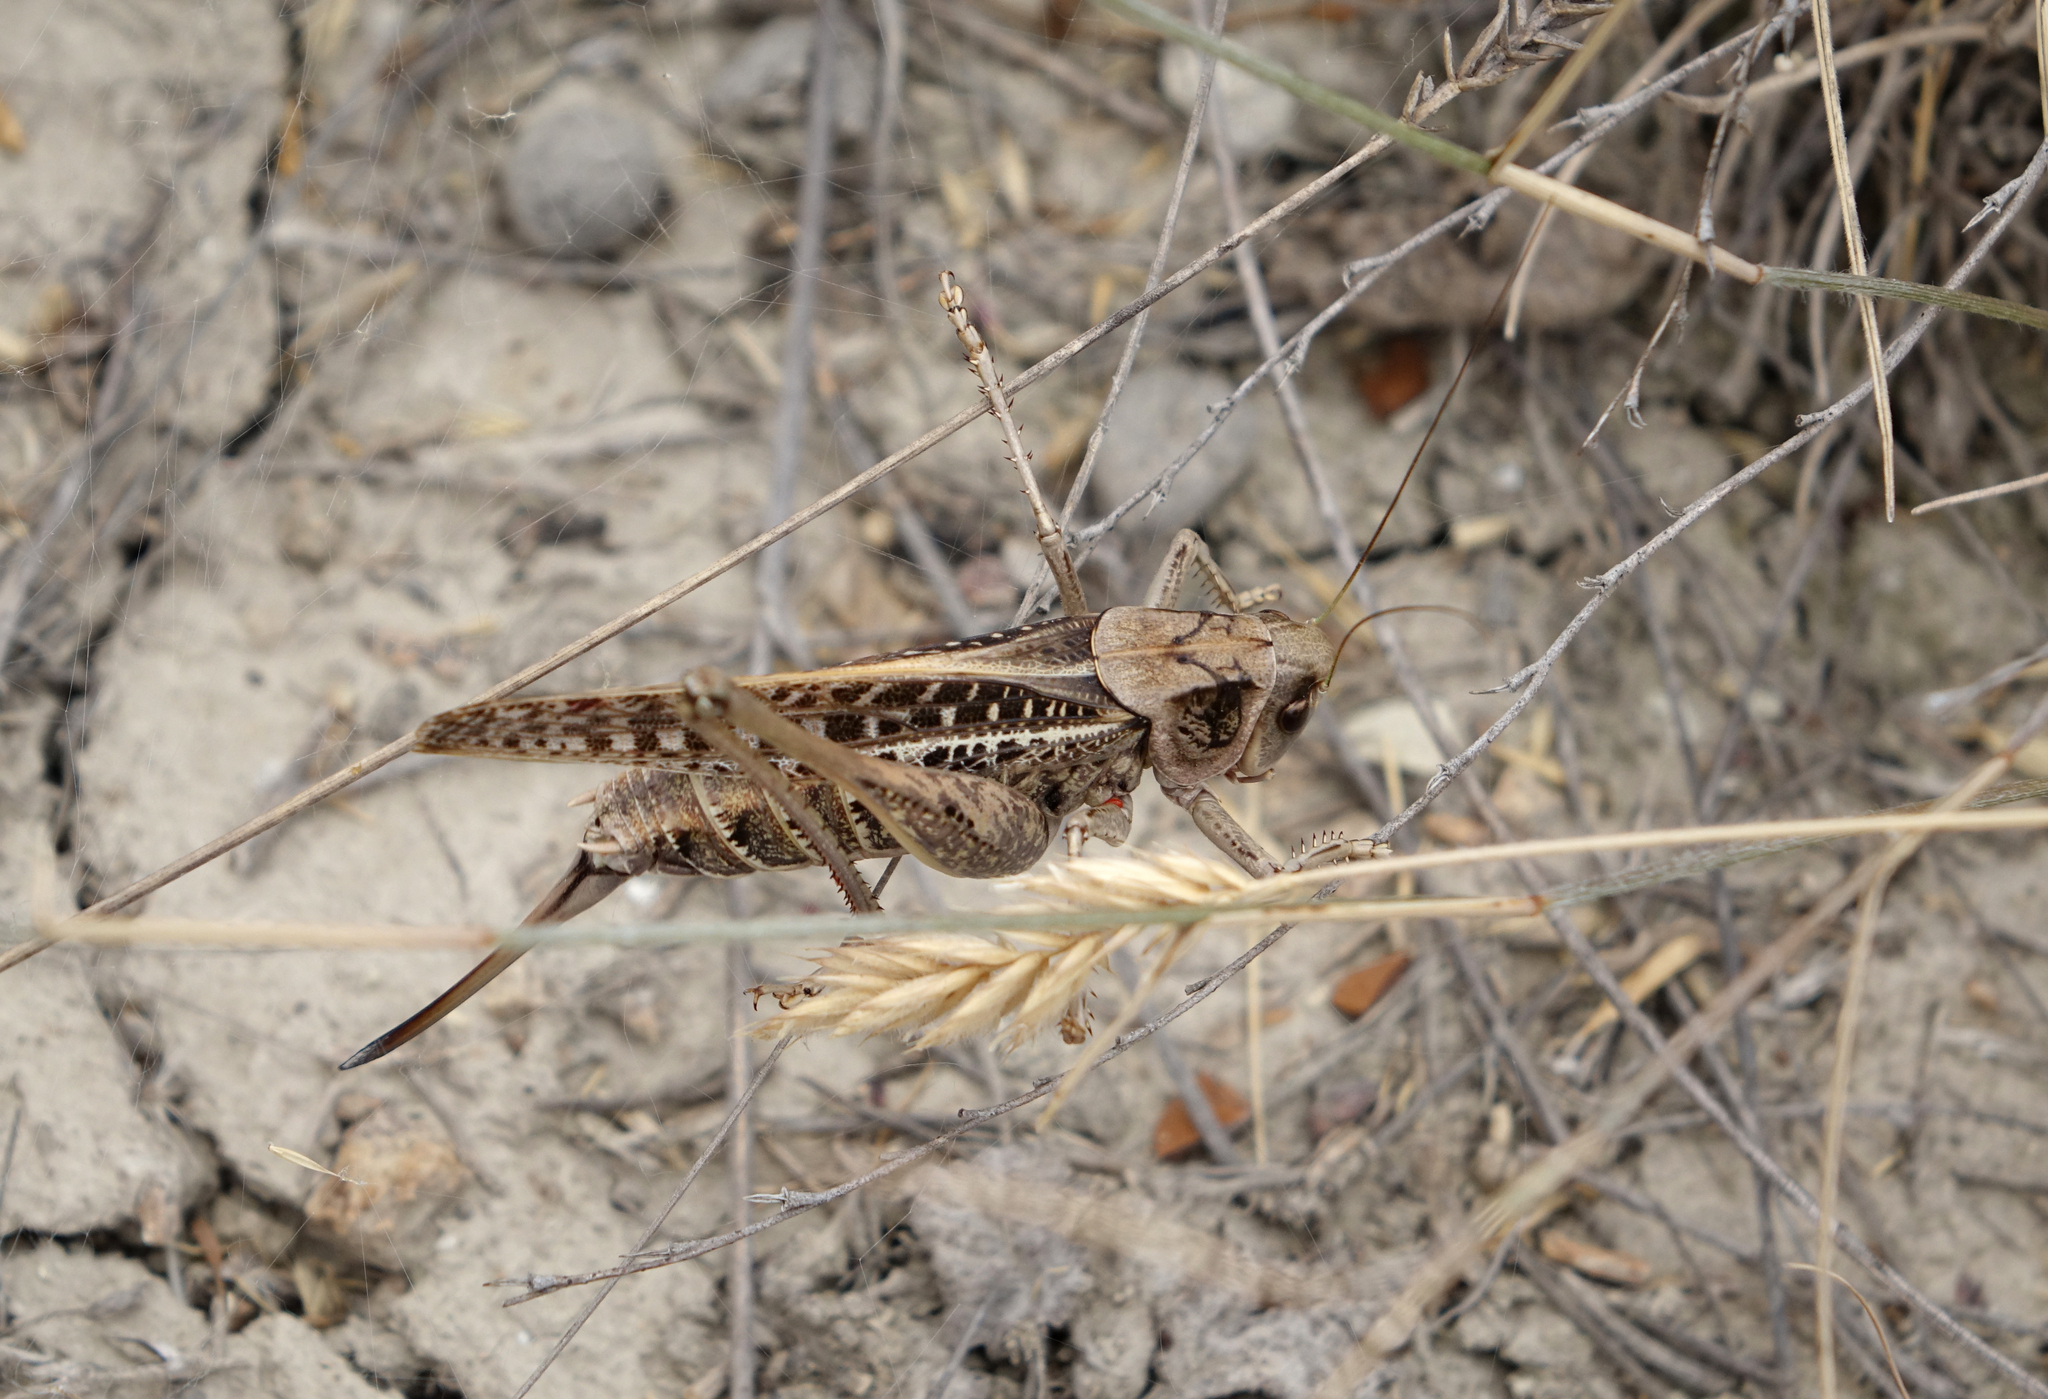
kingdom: Animalia
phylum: Arthropoda
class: Insecta
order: Orthoptera
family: Tettigoniidae
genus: Decticus
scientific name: Decticus verrucivorus
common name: Wart-biter
